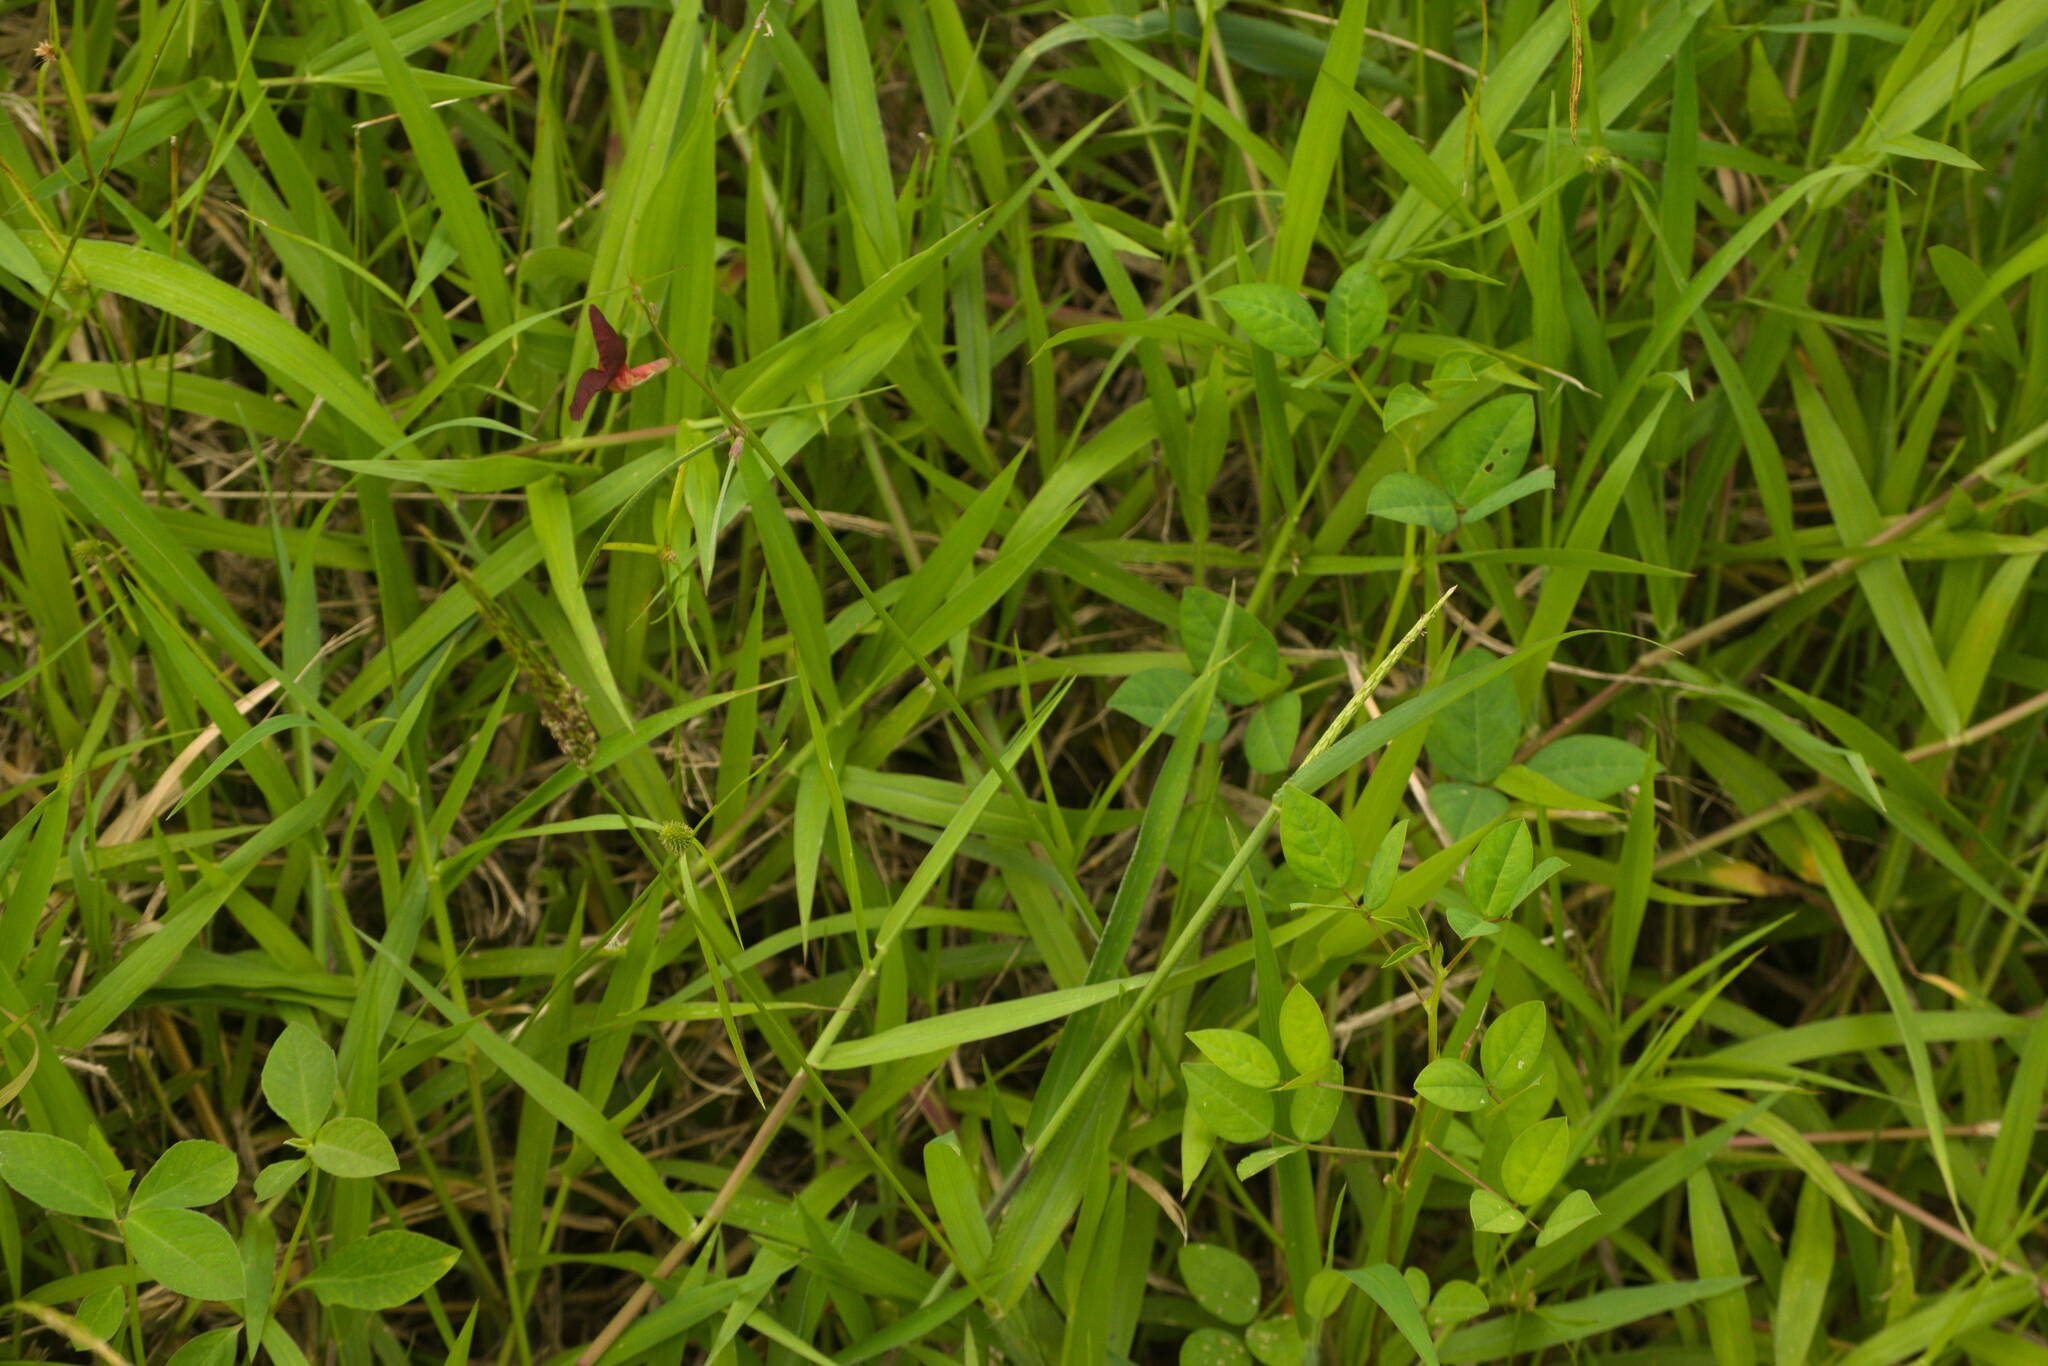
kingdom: Plantae
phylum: Tracheophyta
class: Magnoliopsida
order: Fabales
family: Fabaceae
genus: Macroptilium
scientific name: Macroptilium lathyroides
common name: Wild bushbean
